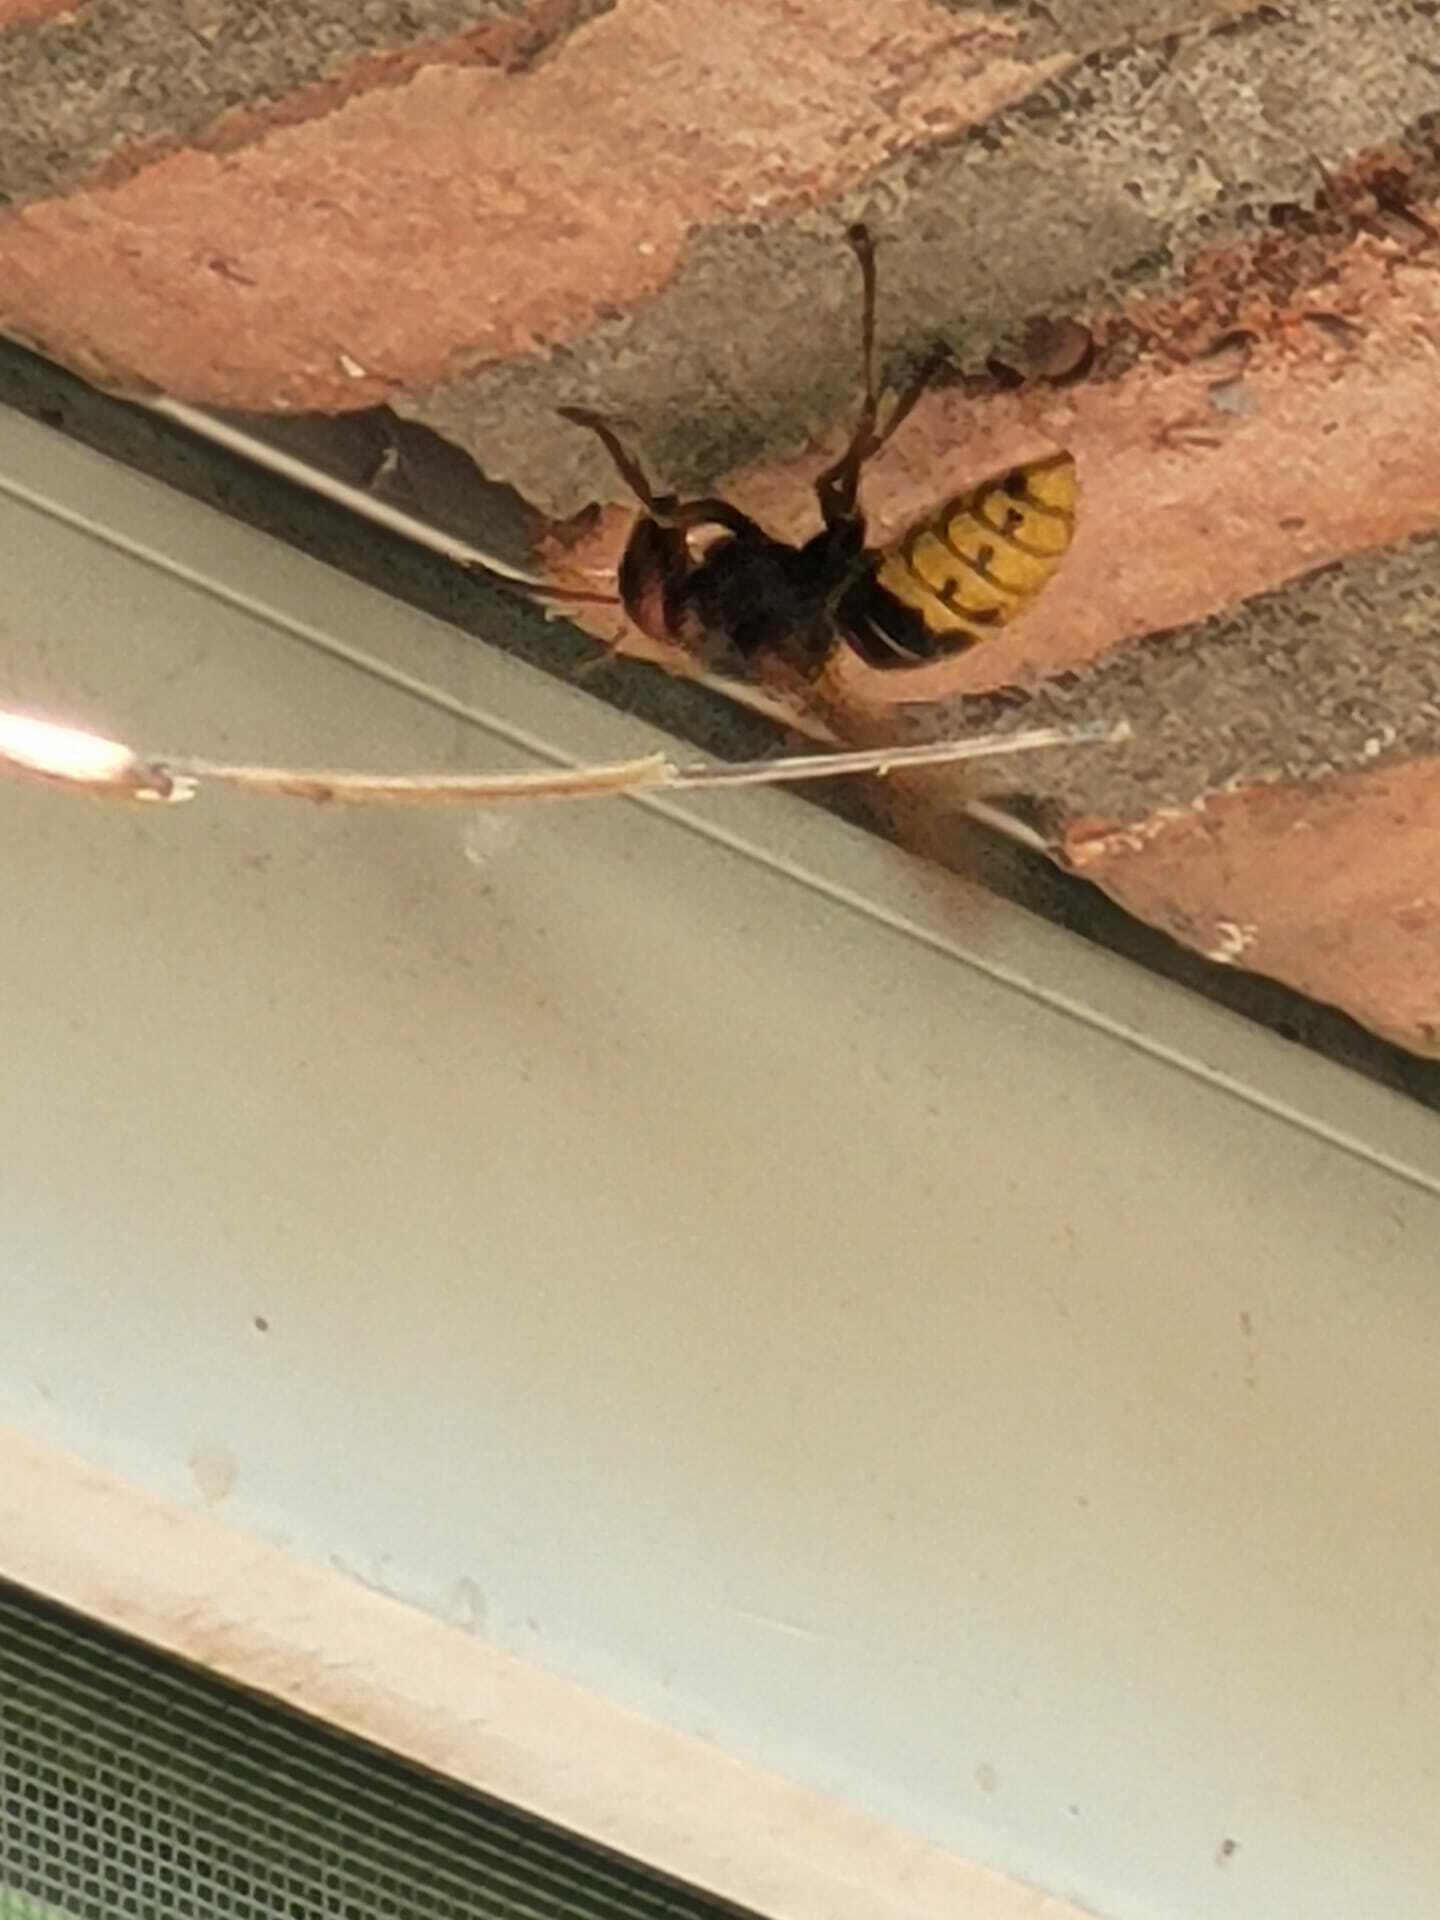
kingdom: Animalia
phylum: Arthropoda
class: Insecta
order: Hymenoptera
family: Vespidae
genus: Vespa
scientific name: Vespa crabro
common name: Hornet
